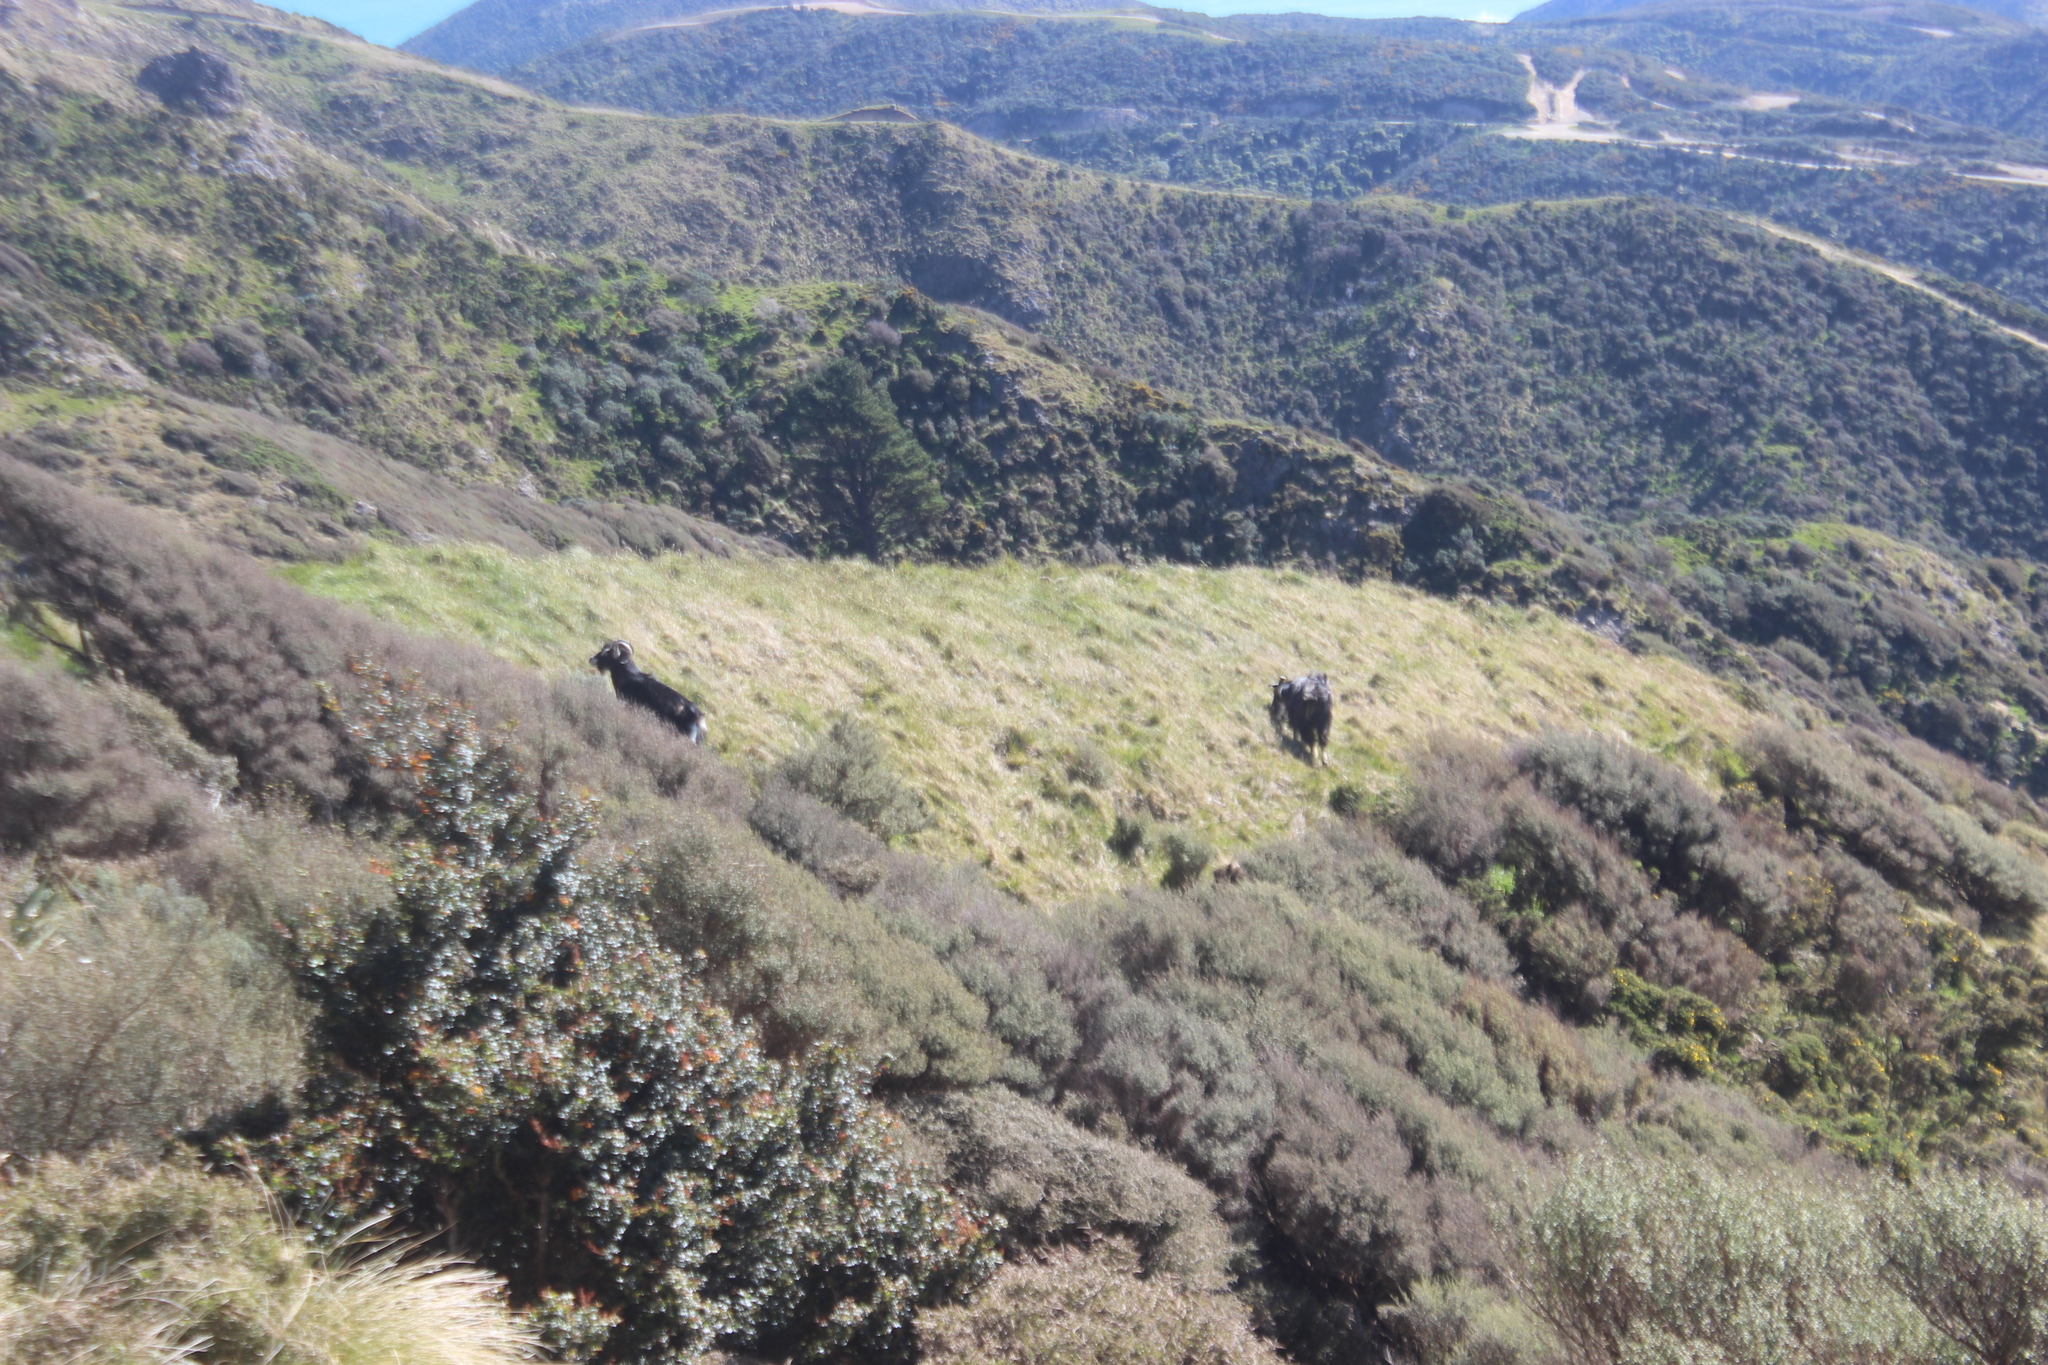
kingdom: Animalia
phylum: Chordata
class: Mammalia
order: Artiodactyla
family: Bovidae
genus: Capra
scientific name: Capra hircus
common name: Domestic goat
